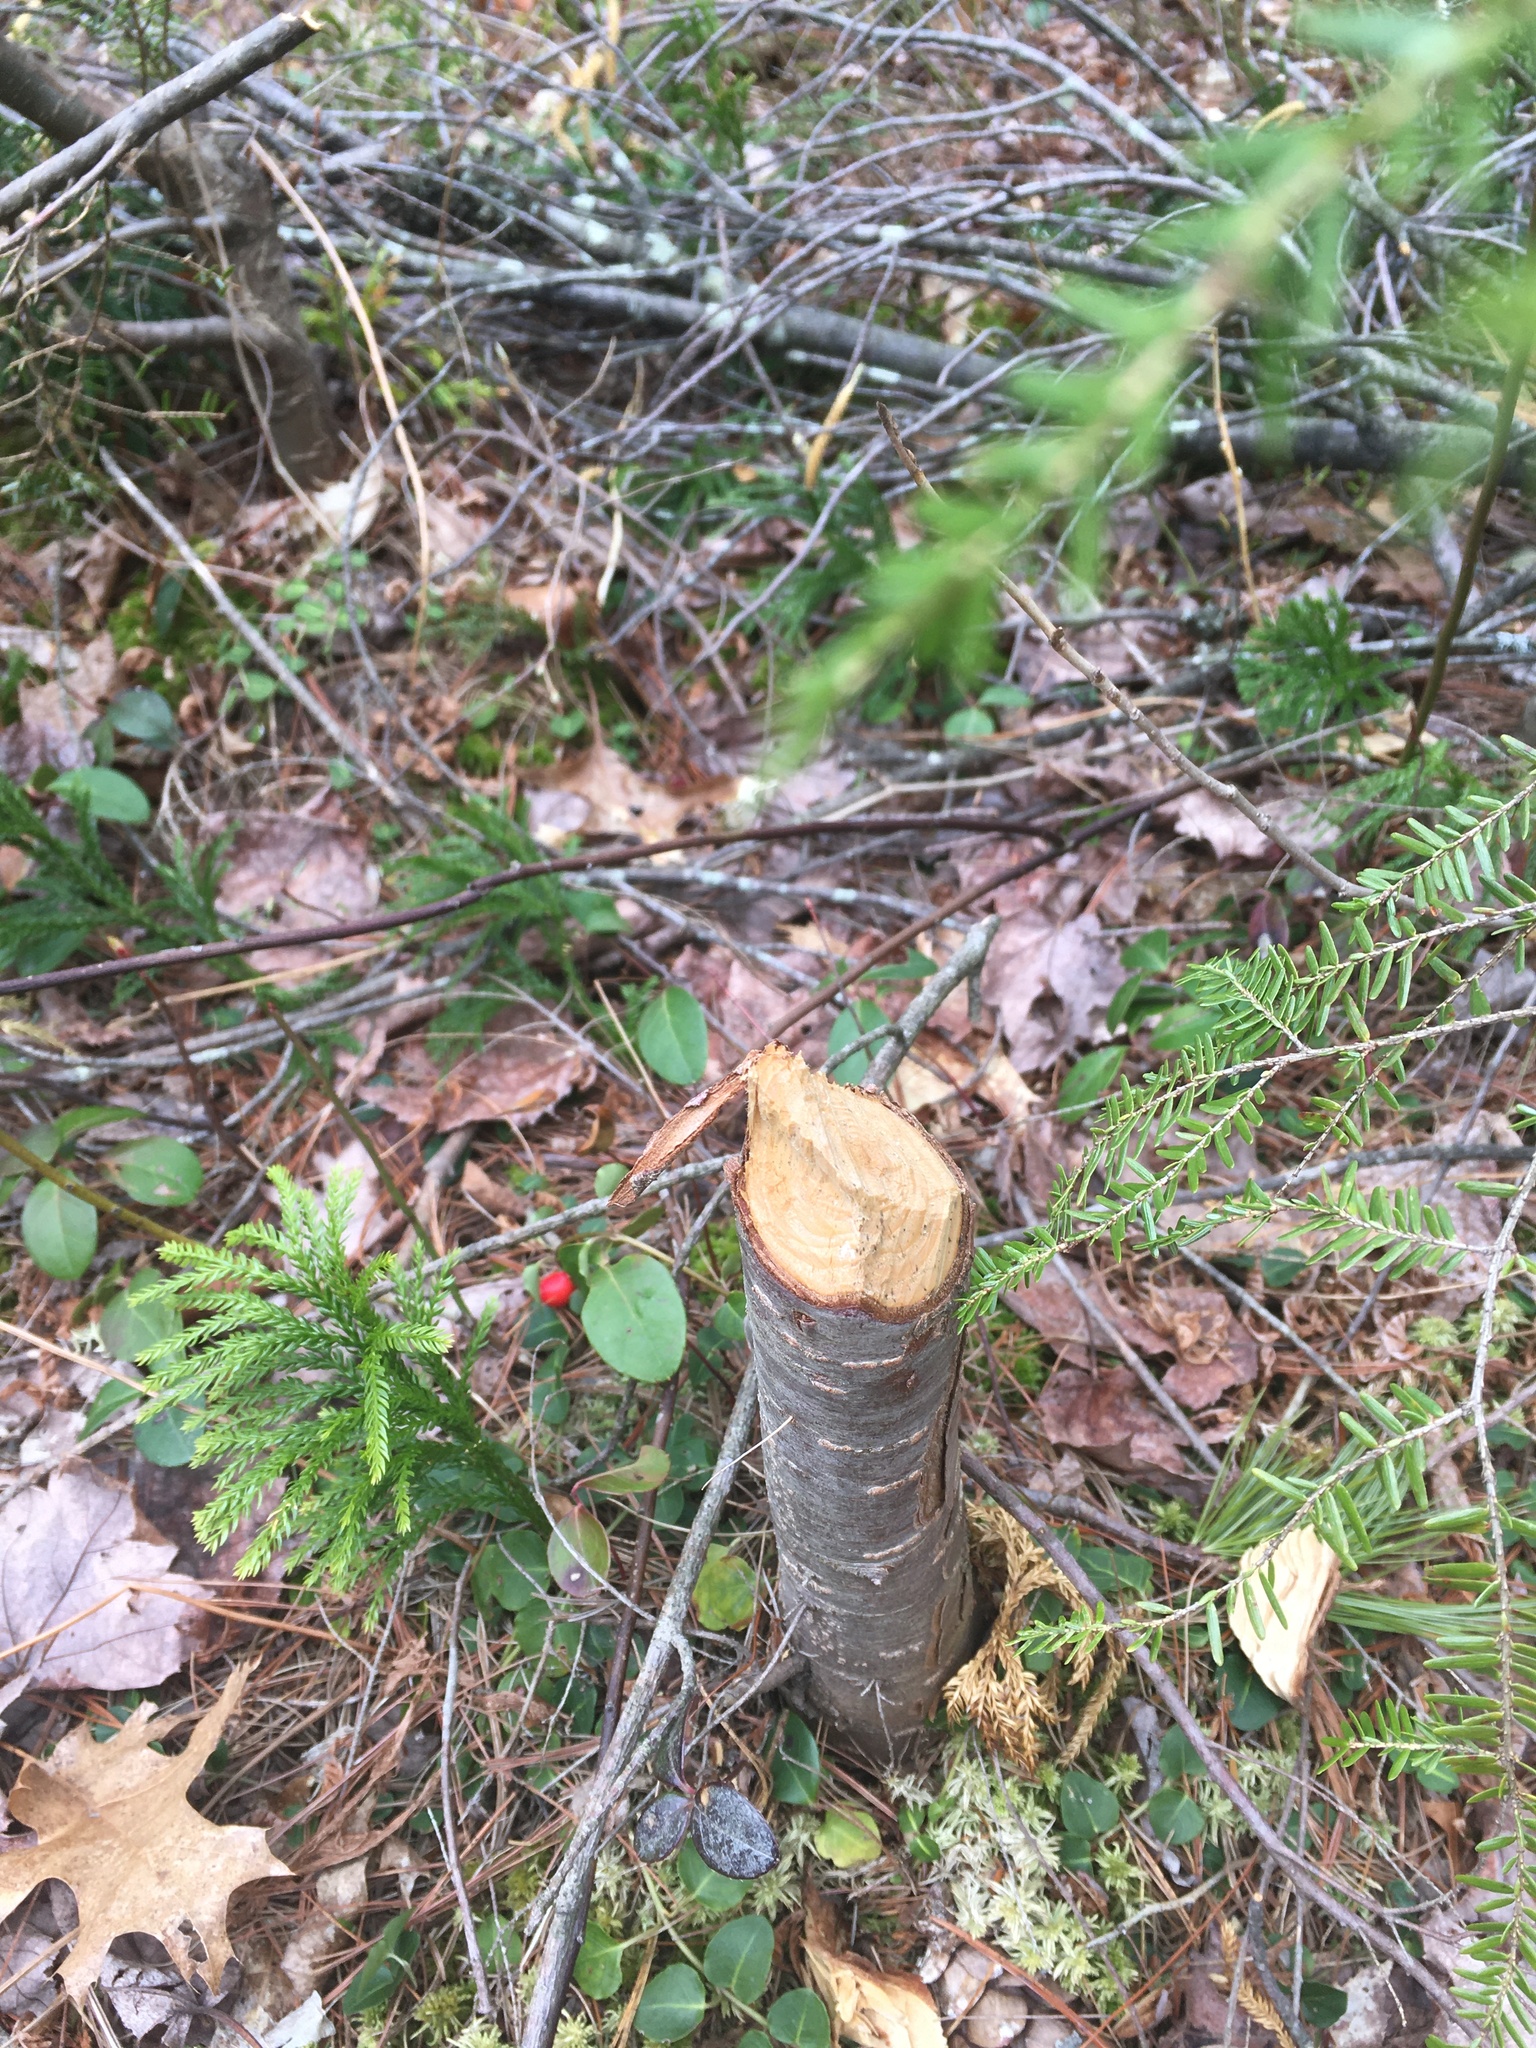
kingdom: Animalia
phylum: Chordata
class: Mammalia
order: Rodentia
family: Castoridae
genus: Castor
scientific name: Castor canadensis
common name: American beaver
